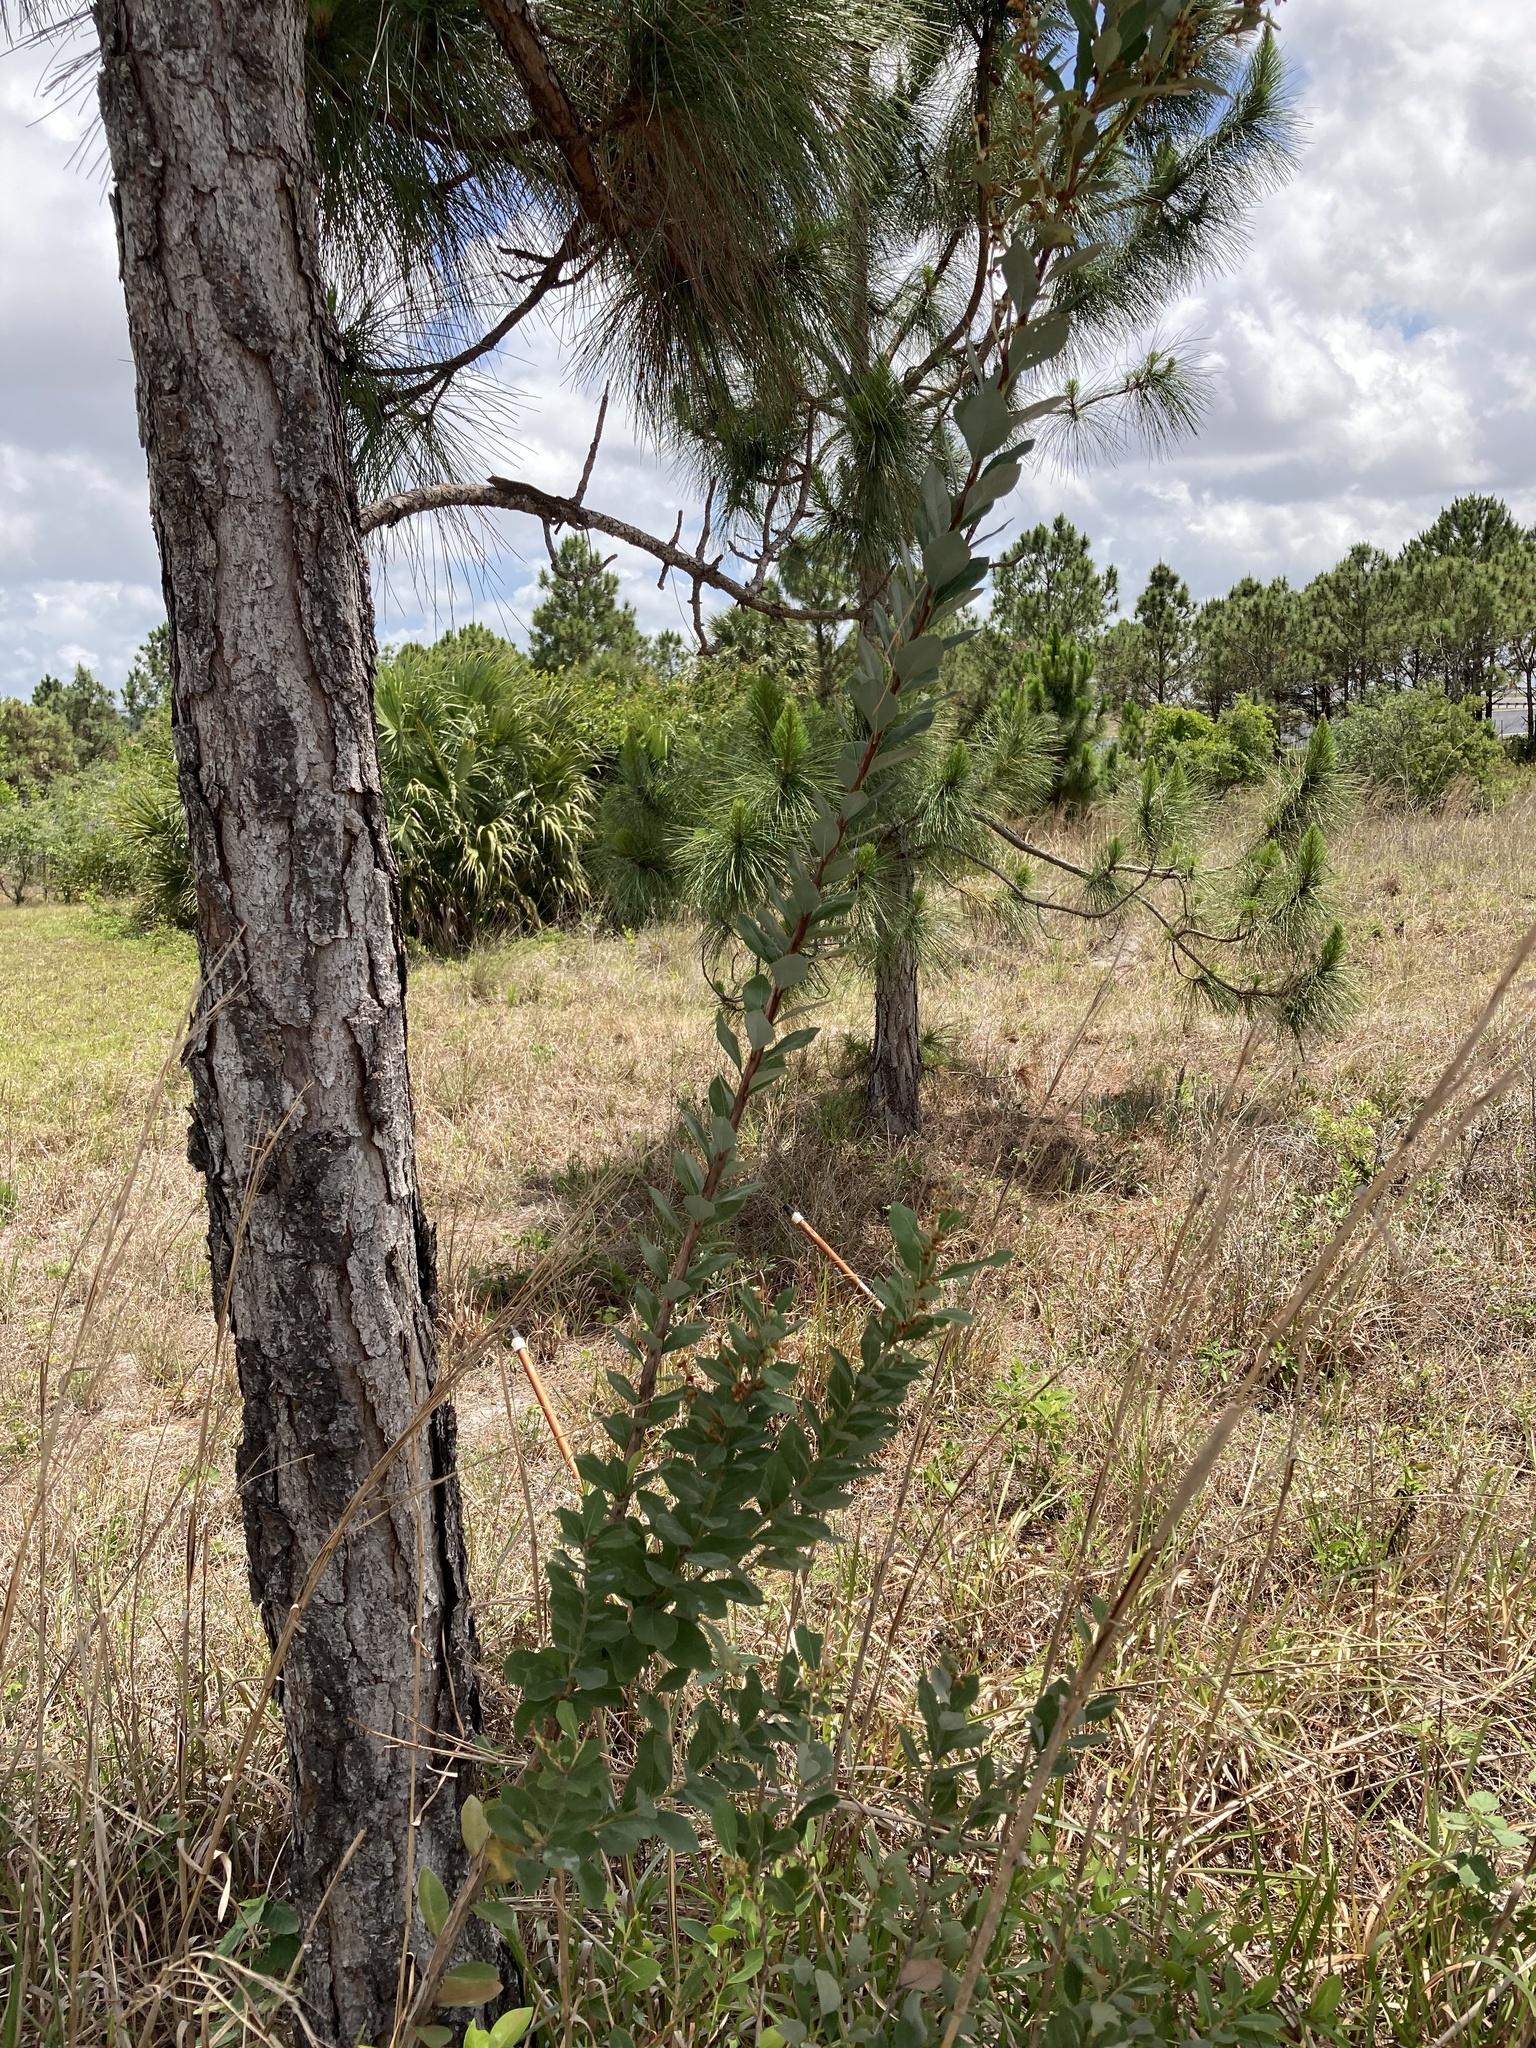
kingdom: Plantae
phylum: Tracheophyta
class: Magnoliopsida
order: Ericales
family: Ericaceae
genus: Lyonia
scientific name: Lyonia fruticosa
